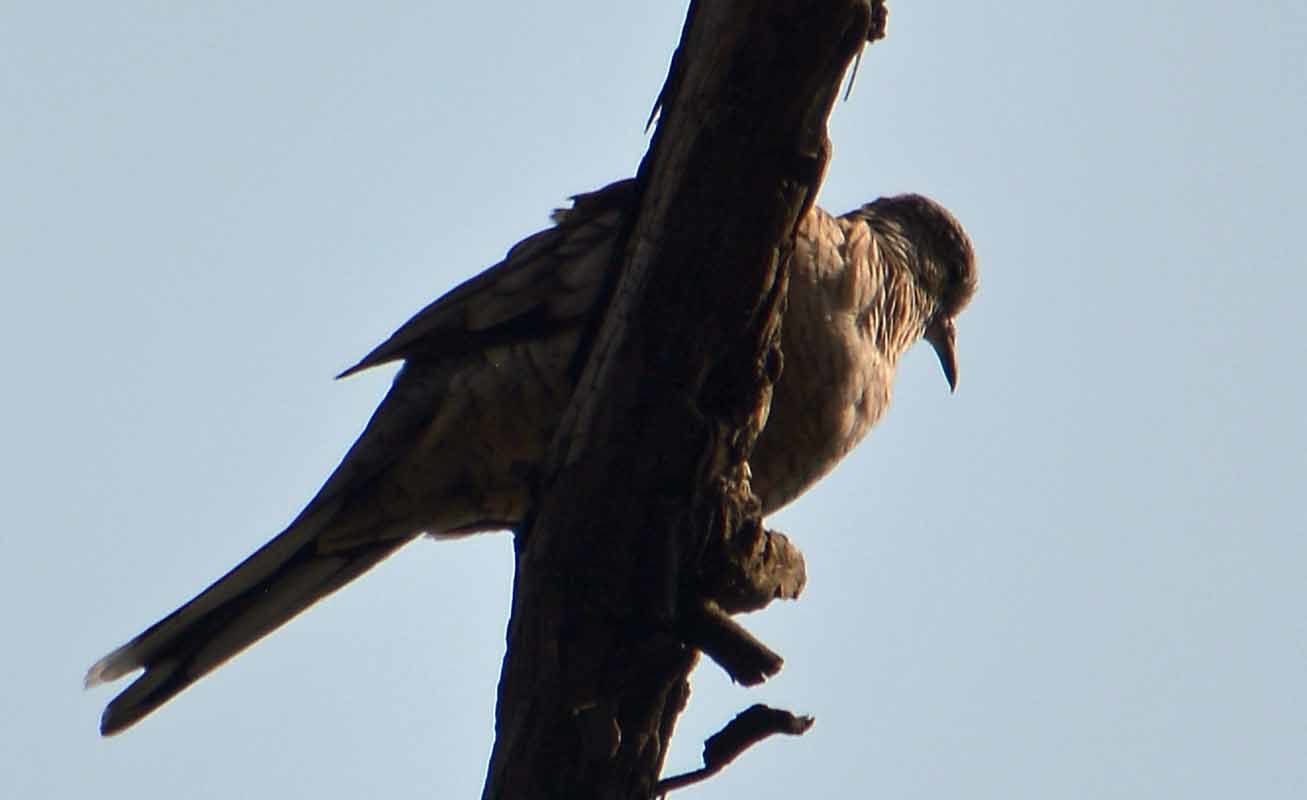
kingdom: Animalia
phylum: Chordata
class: Aves
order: Columbiformes
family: Columbidae
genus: Columbina
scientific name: Columbina inca
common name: Inca dove
